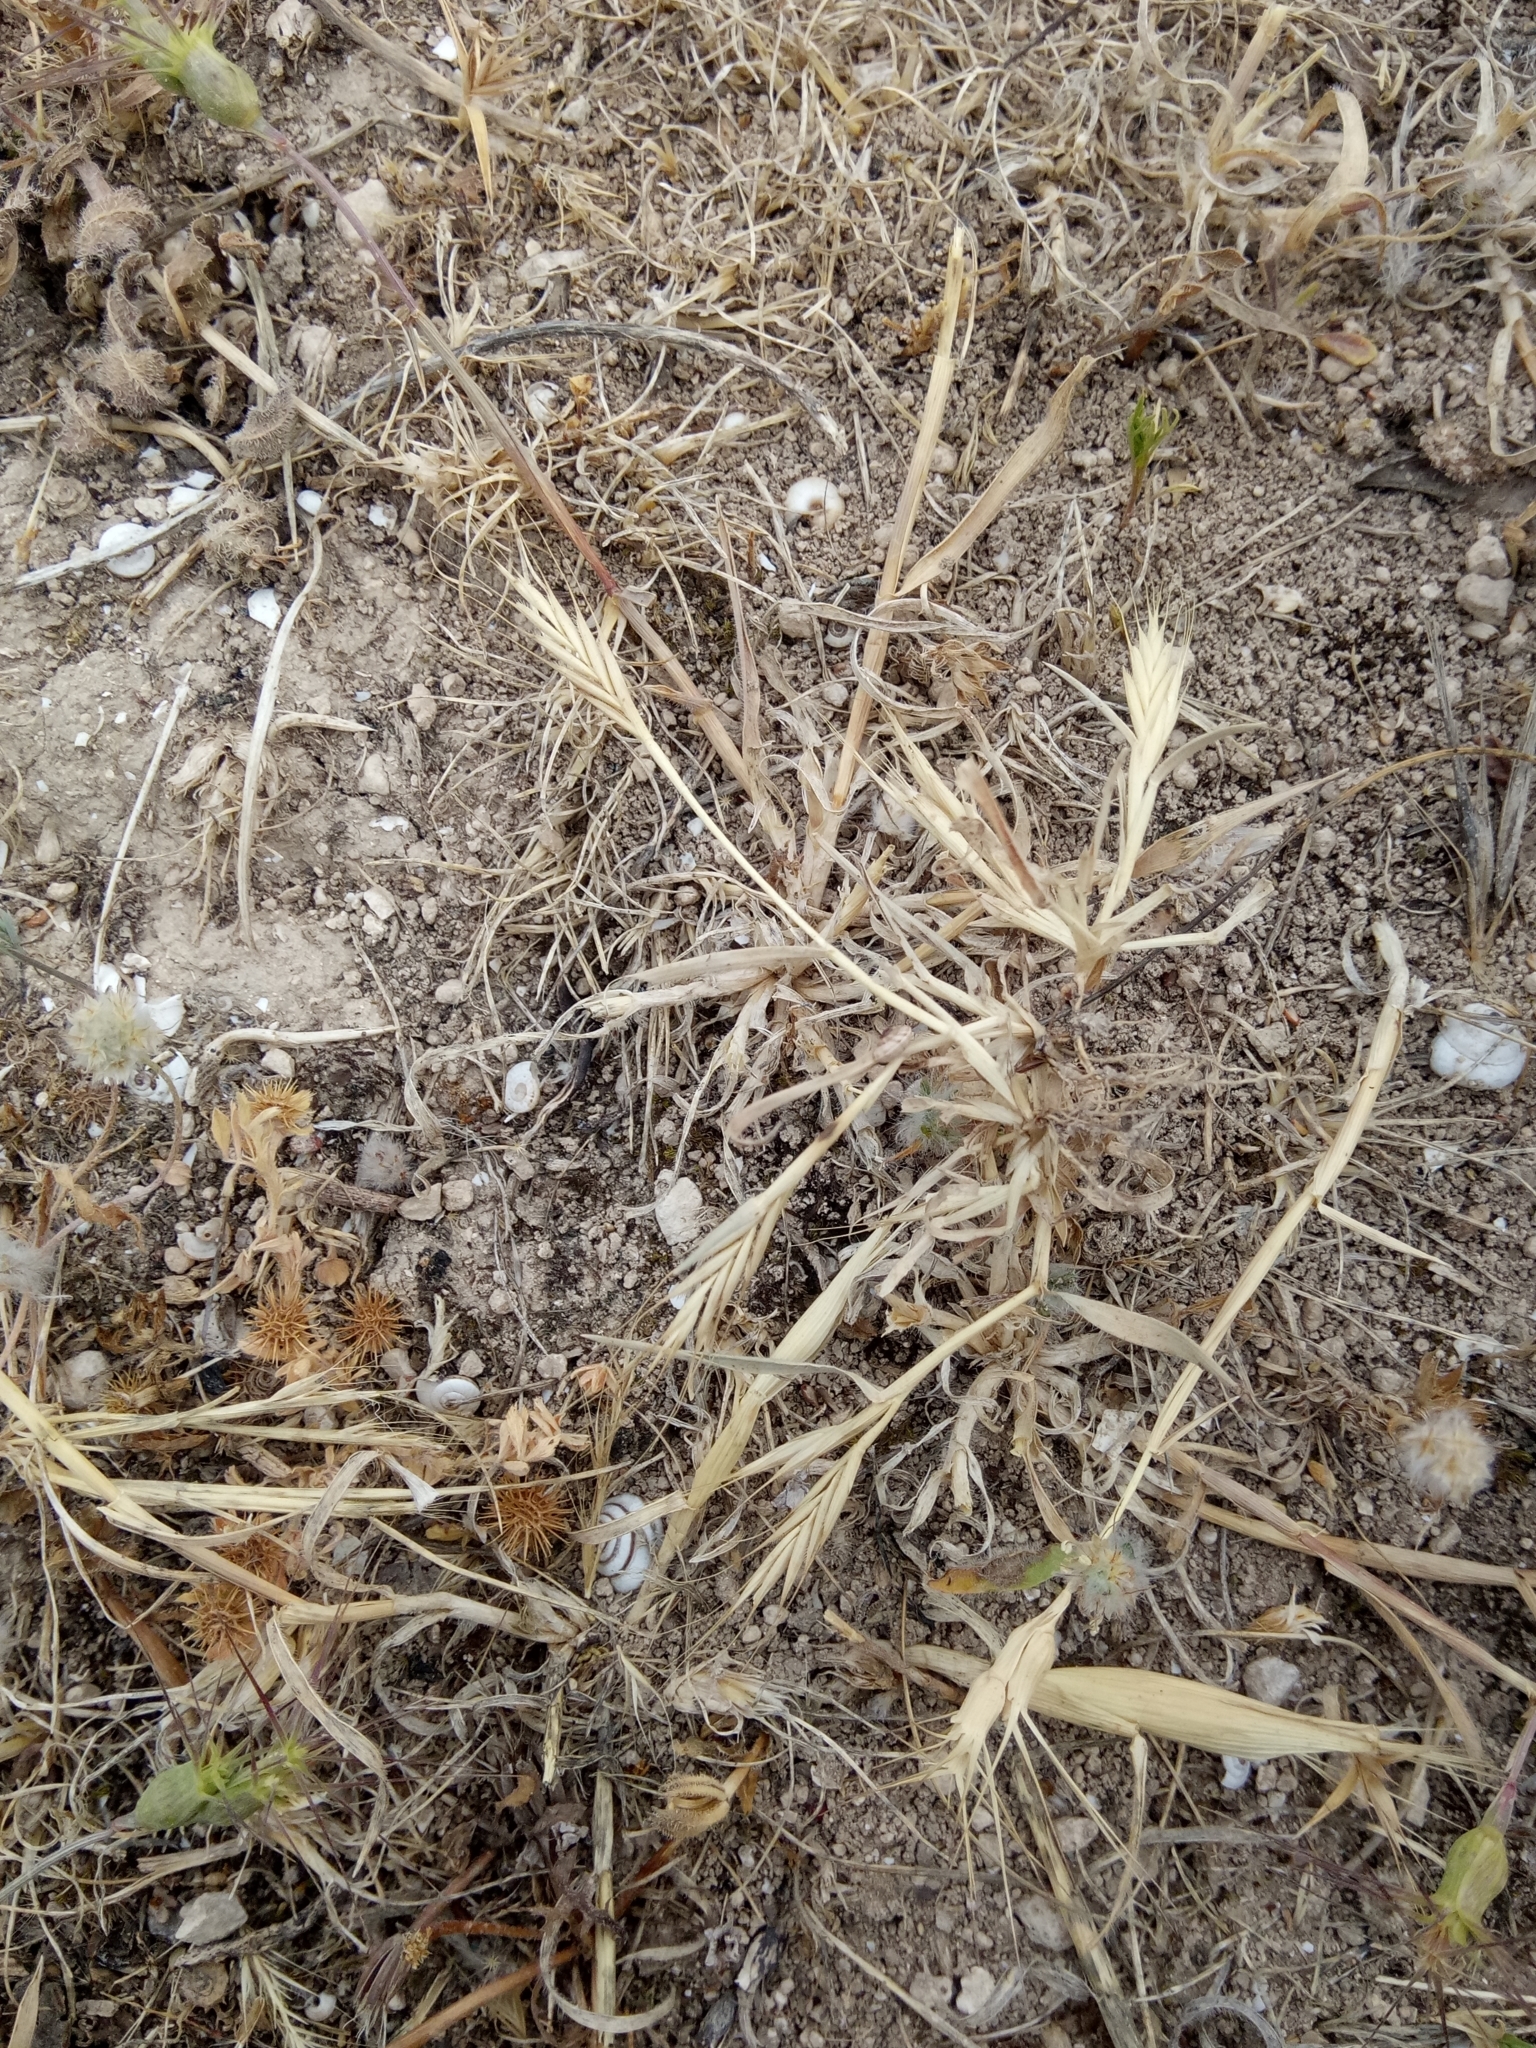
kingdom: Plantae
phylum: Tracheophyta
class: Liliopsida
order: Poales
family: Poaceae
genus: Brachypodium
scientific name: Brachypodium distachyon
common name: Stiff brome
